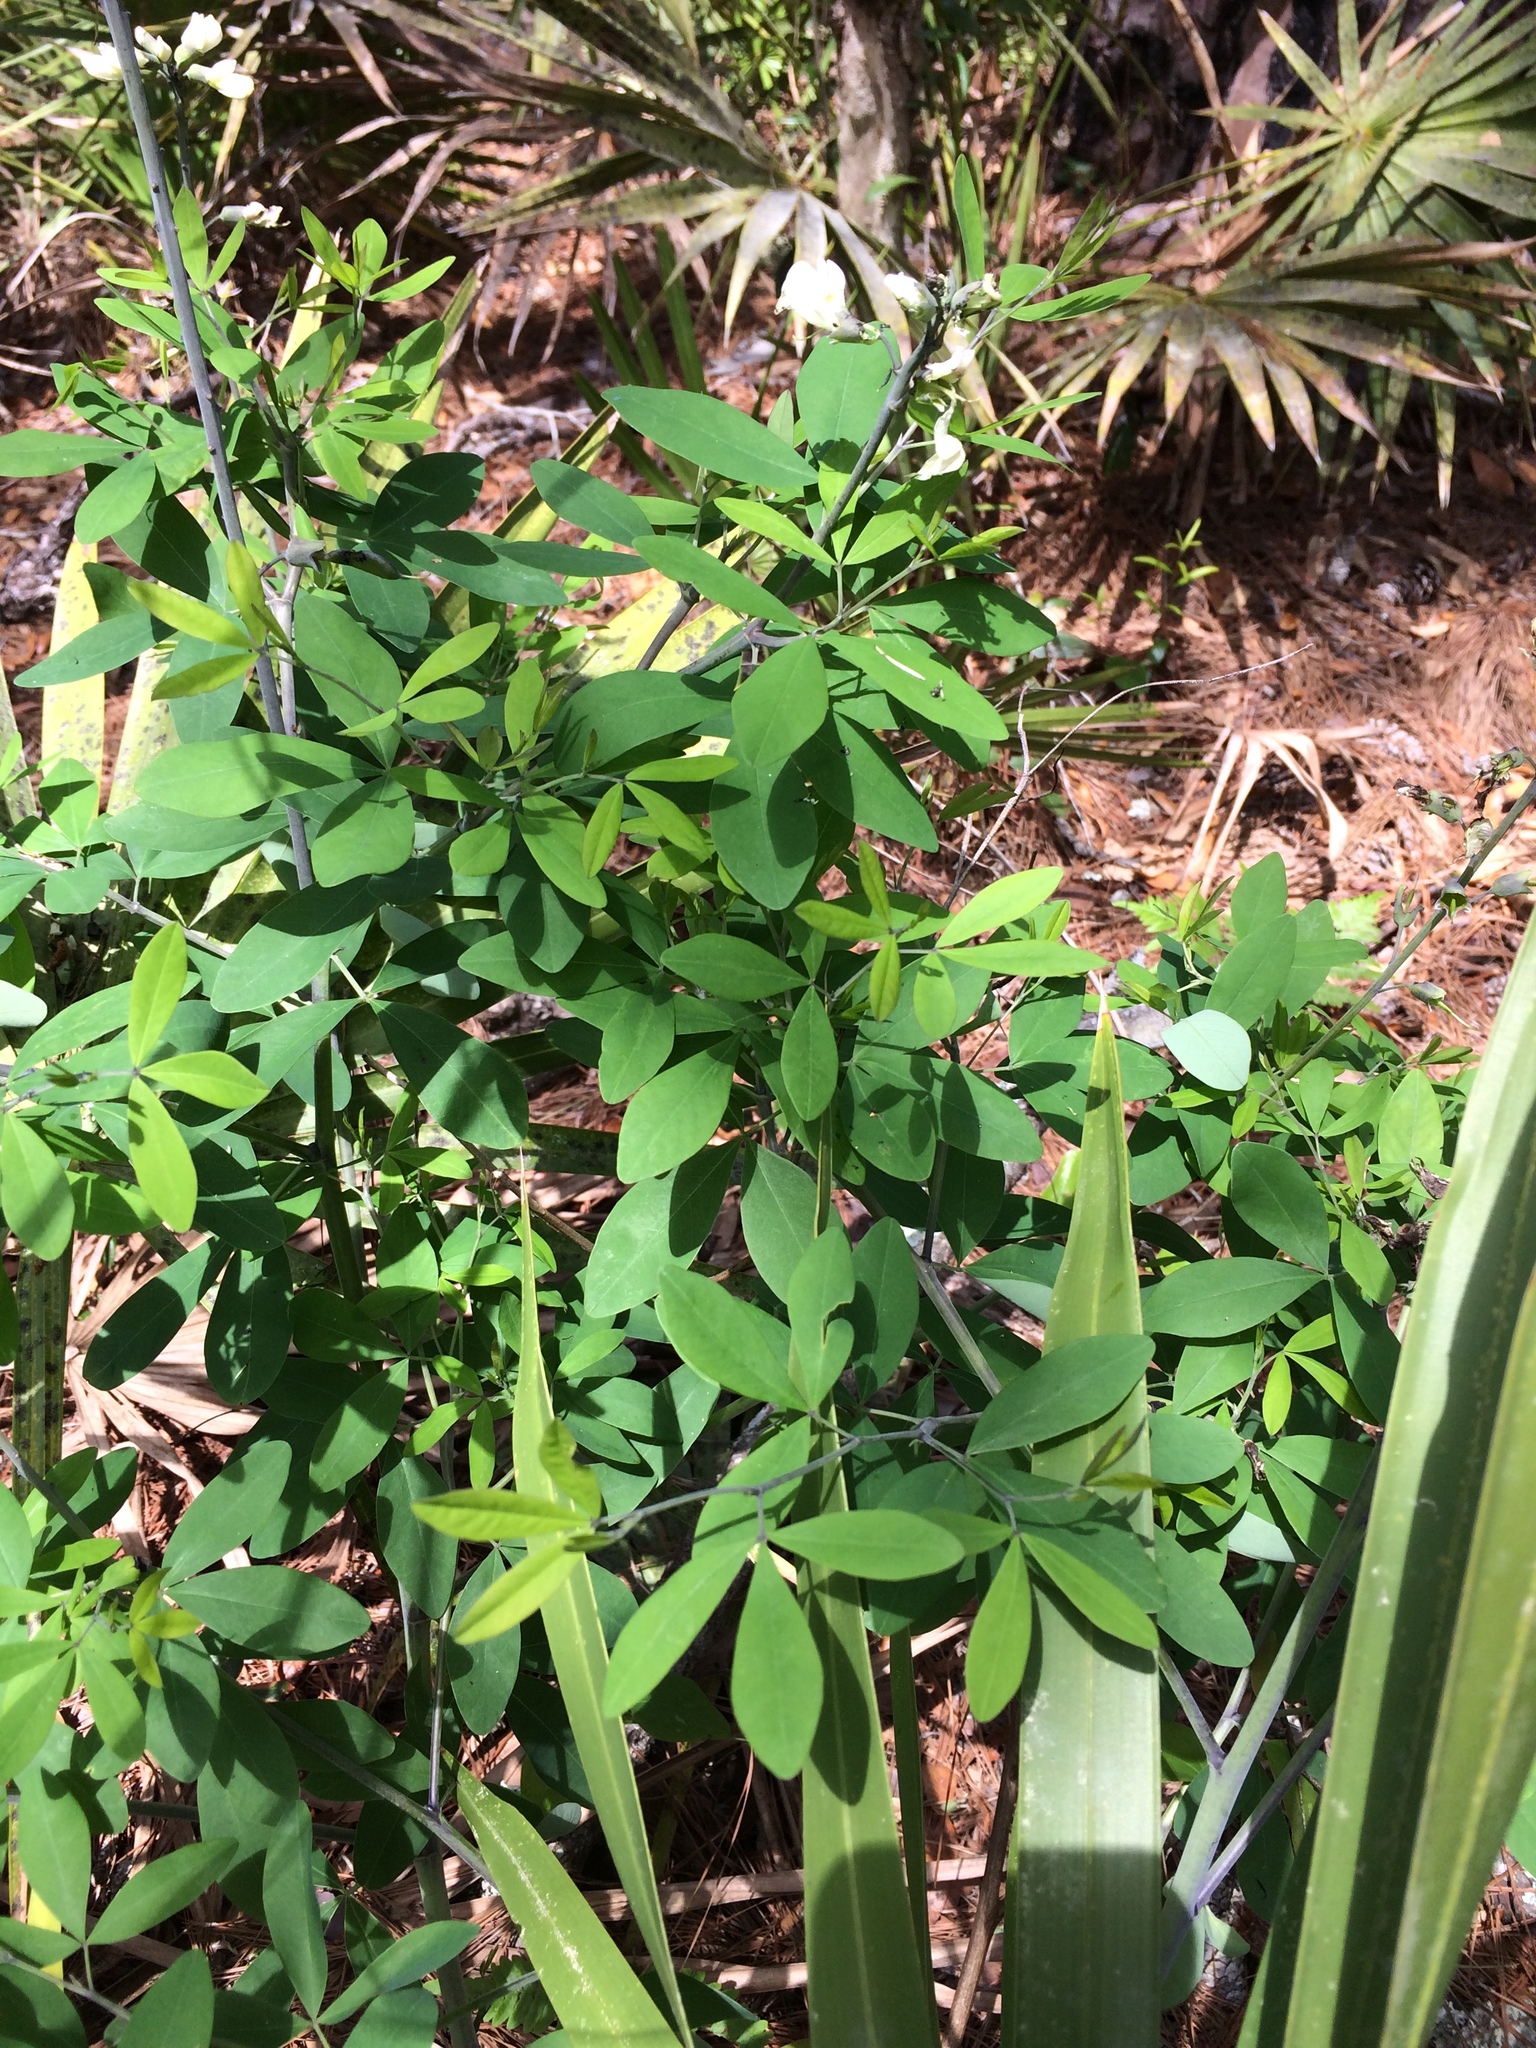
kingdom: Plantae
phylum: Tracheophyta
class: Magnoliopsida
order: Fabales
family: Fabaceae
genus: Baptisia
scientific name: Baptisia alba
